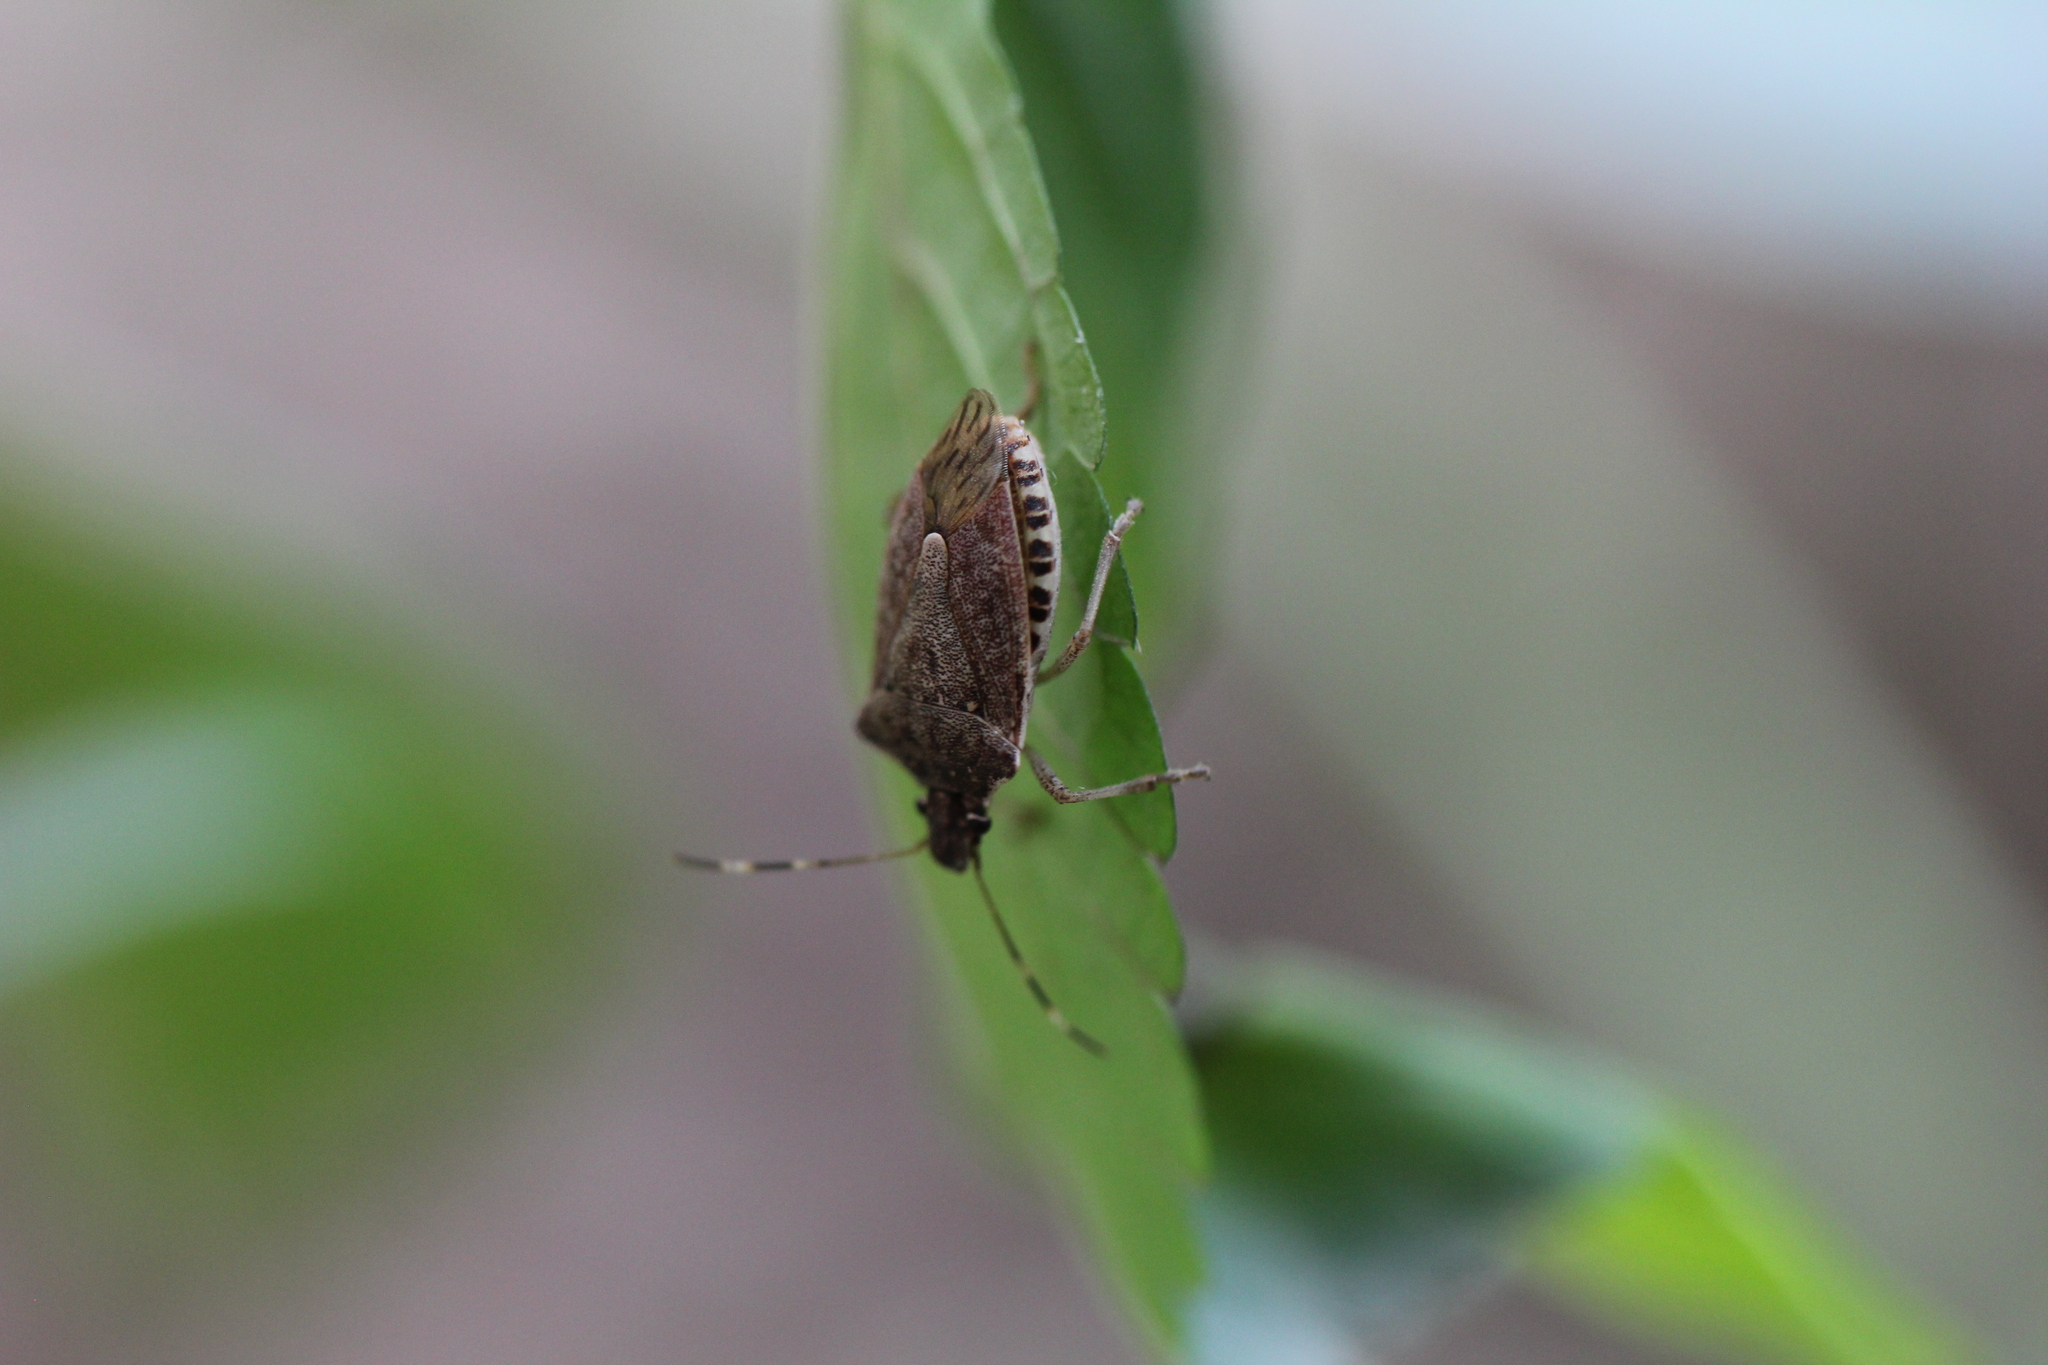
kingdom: Animalia
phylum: Arthropoda
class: Insecta
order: Hemiptera
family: Pentatomidae
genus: Halyomorpha
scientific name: Halyomorpha halys
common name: Brown marmorated stink bug
